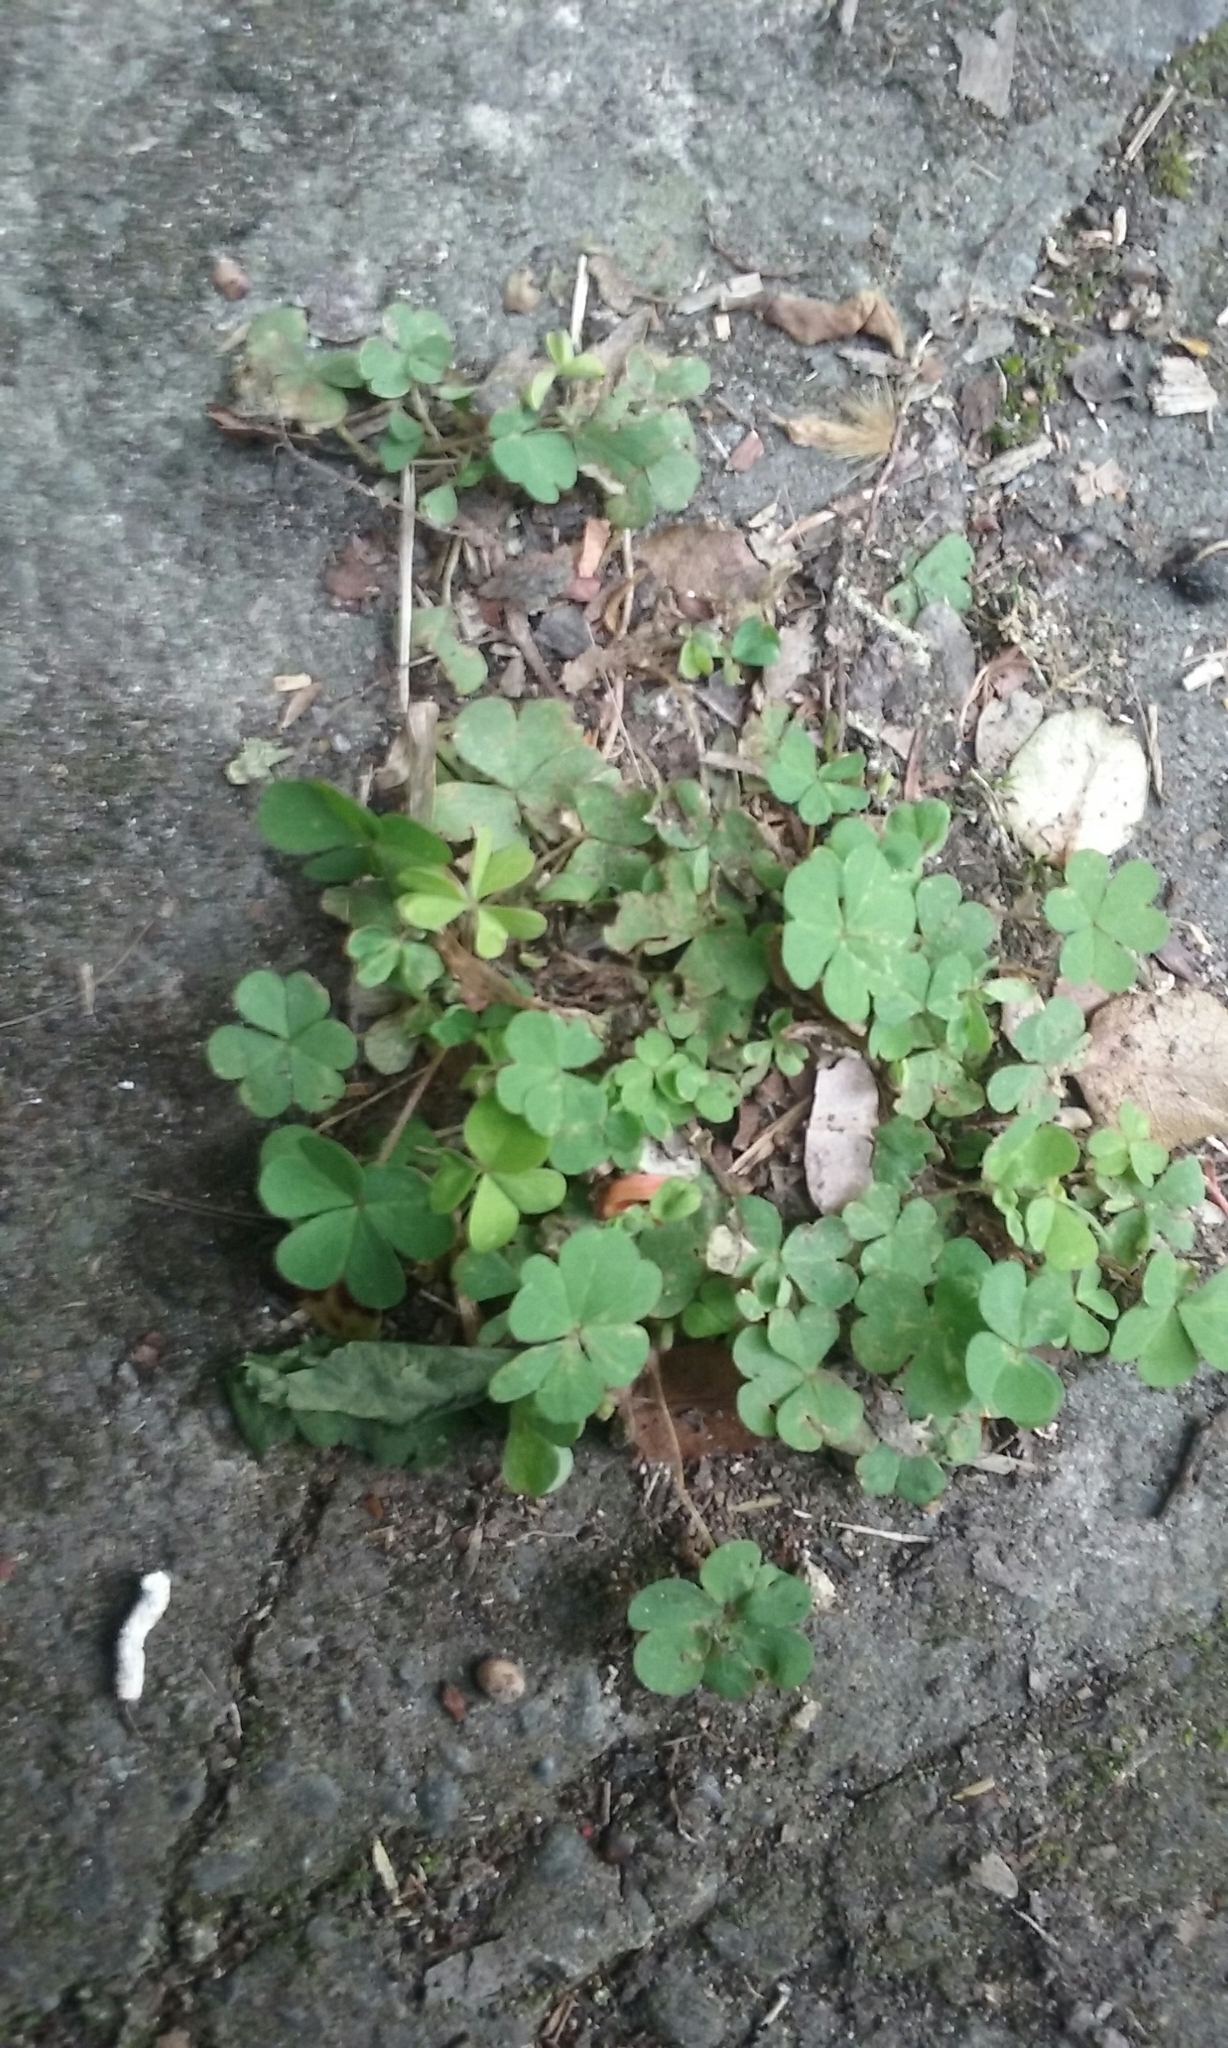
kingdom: Plantae
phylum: Tracheophyta
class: Magnoliopsida
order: Oxalidales
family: Oxalidaceae
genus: Oxalis
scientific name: Oxalis exilis
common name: Least yellow-sorrel
